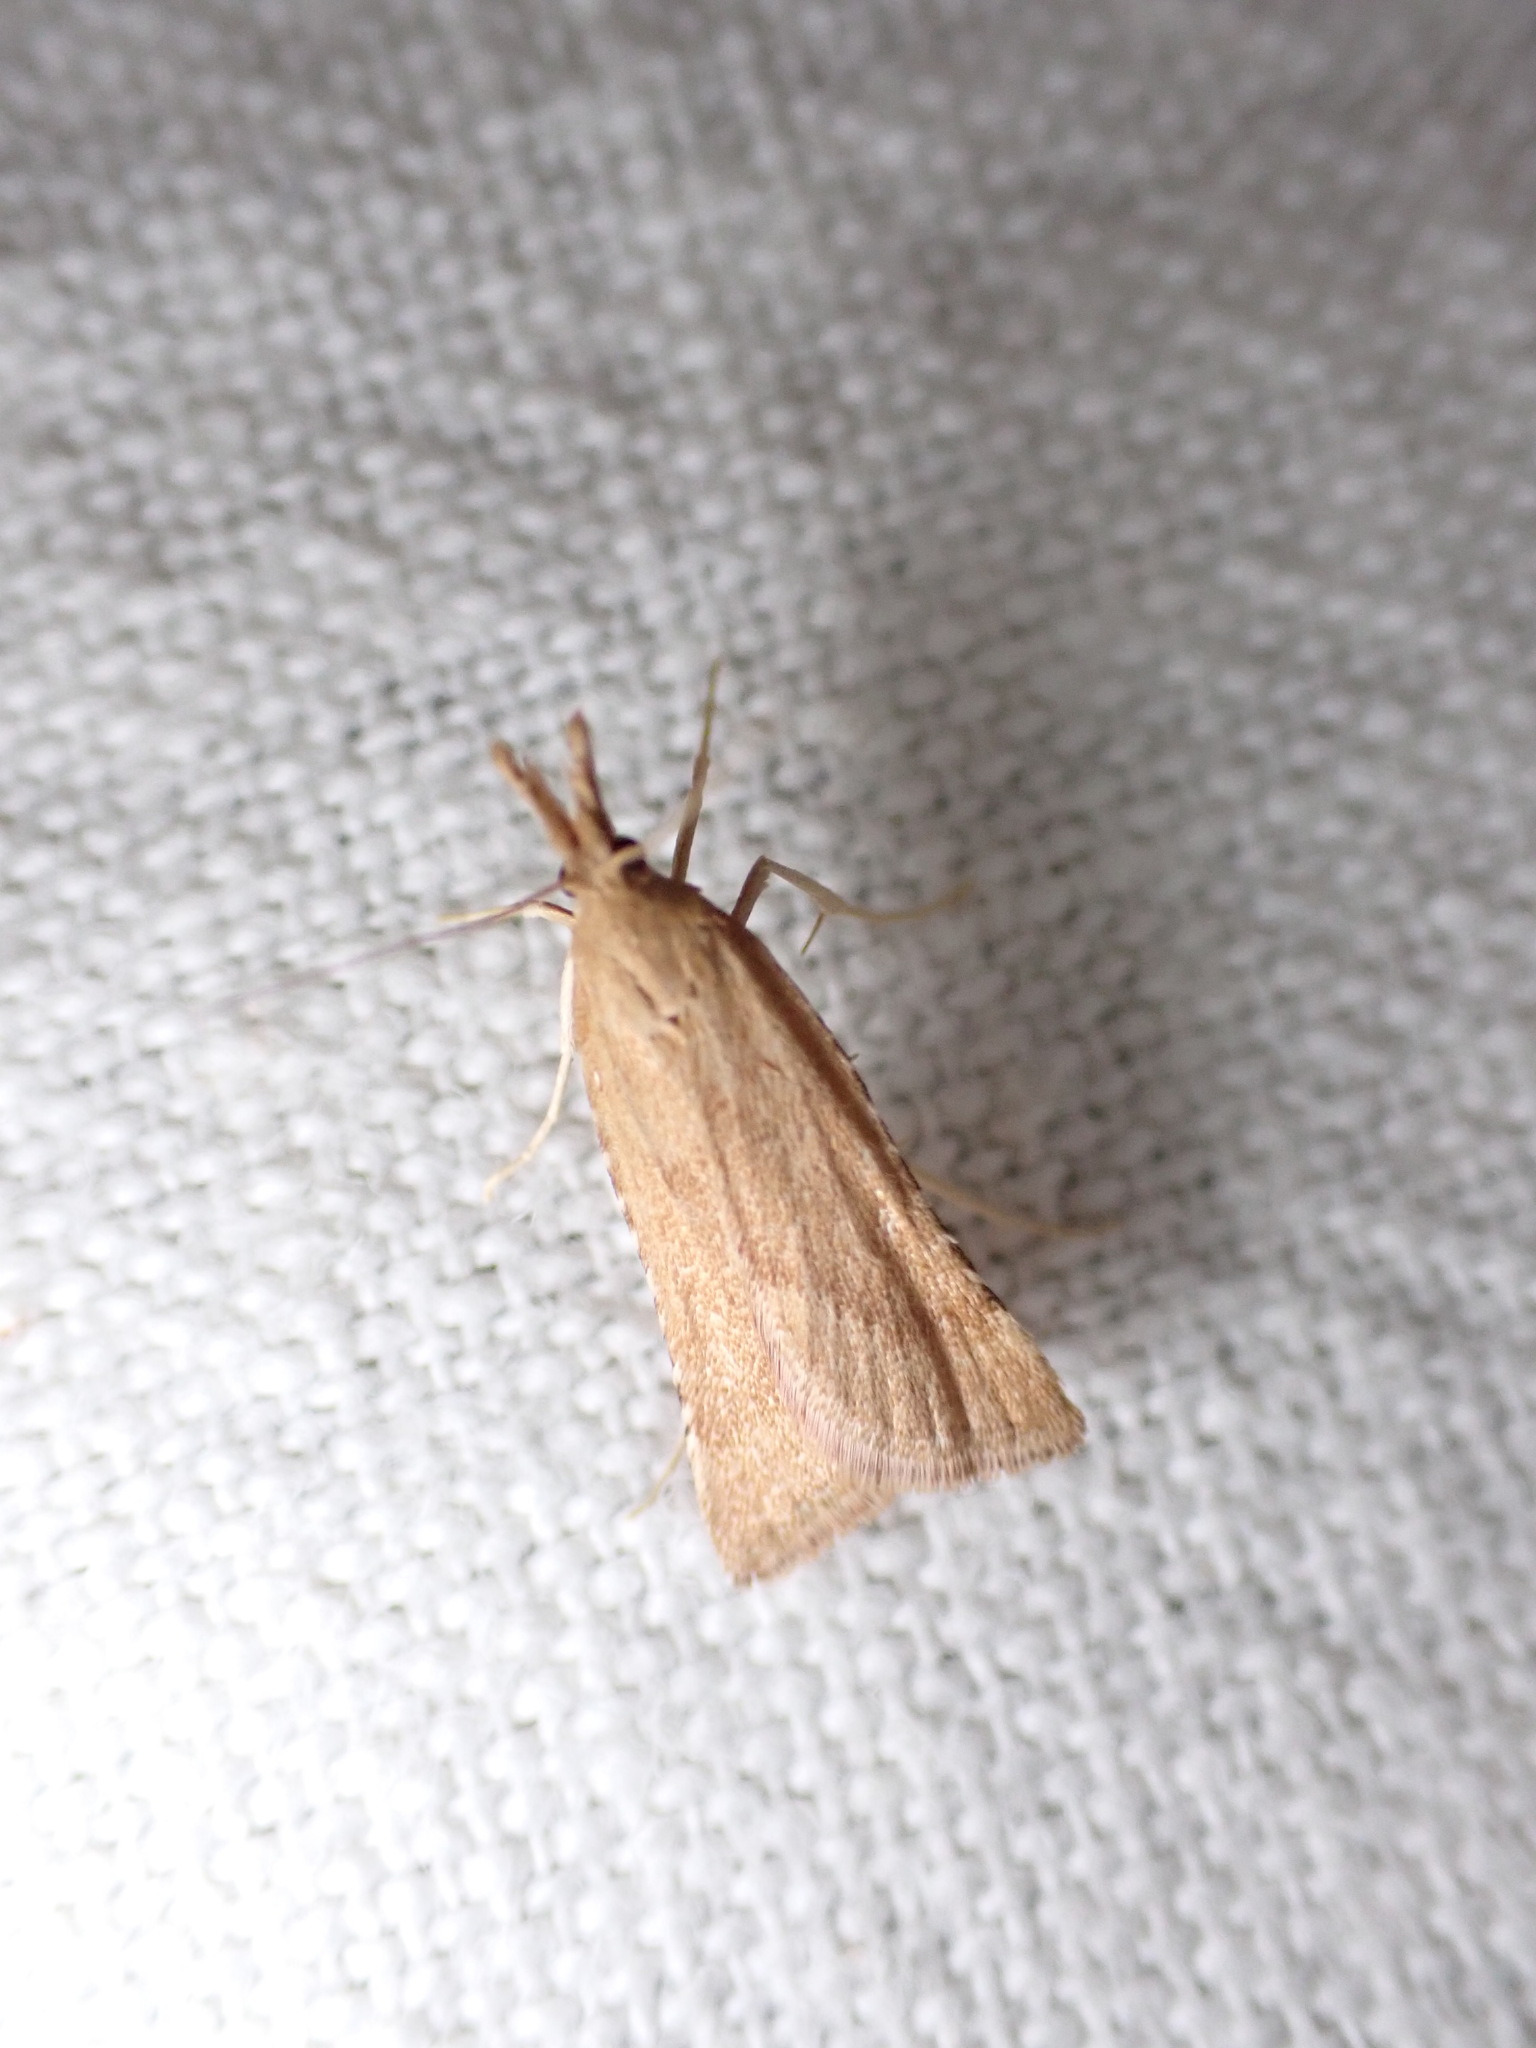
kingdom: Animalia
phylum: Arthropoda
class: Insecta
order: Lepidoptera
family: Pyralidae
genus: Synaphe
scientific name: Synaphe punctalis
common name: Long-legged tabby
